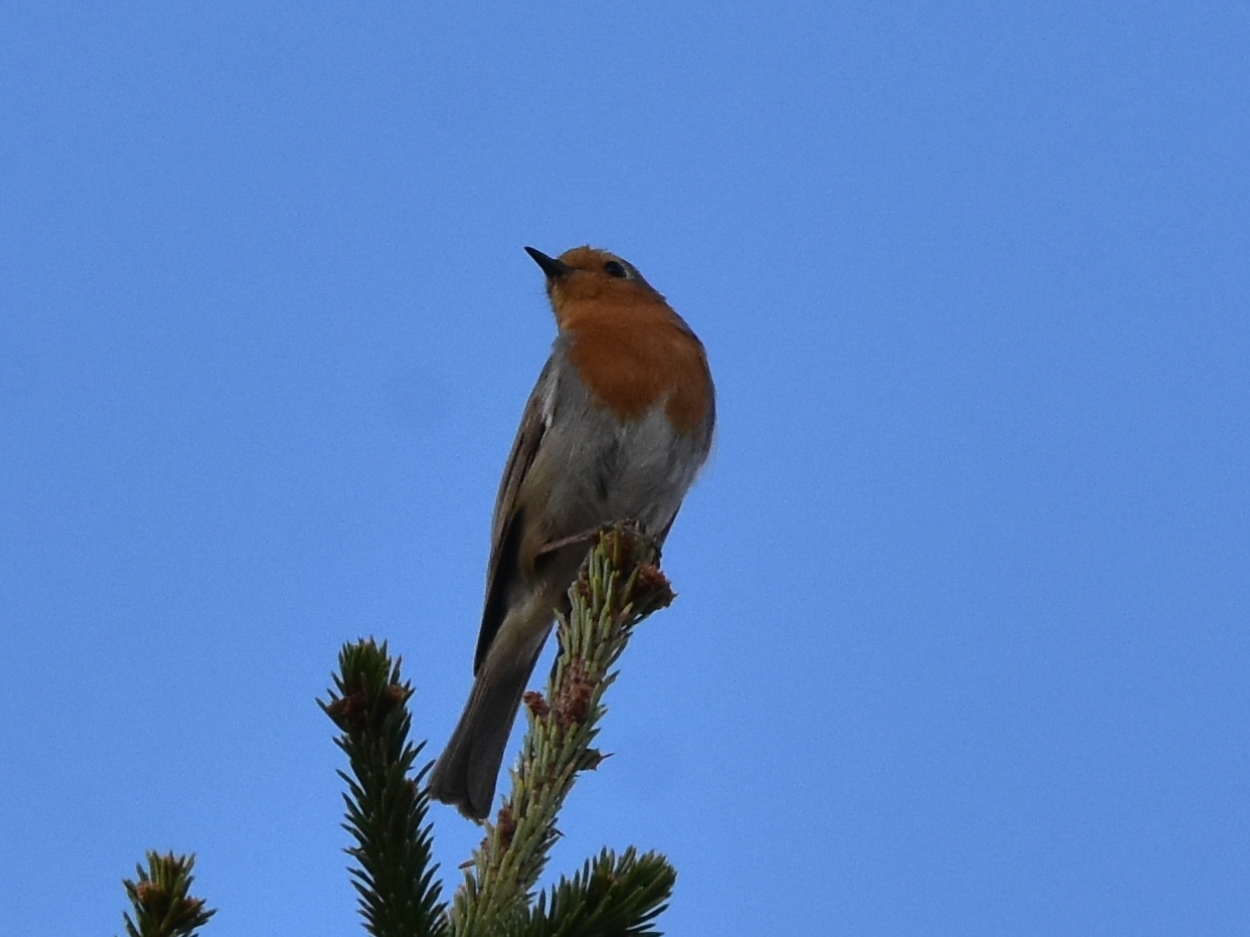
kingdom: Animalia
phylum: Chordata
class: Aves
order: Passeriformes
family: Muscicapidae
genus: Erithacus
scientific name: Erithacus rubecula
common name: European robin
